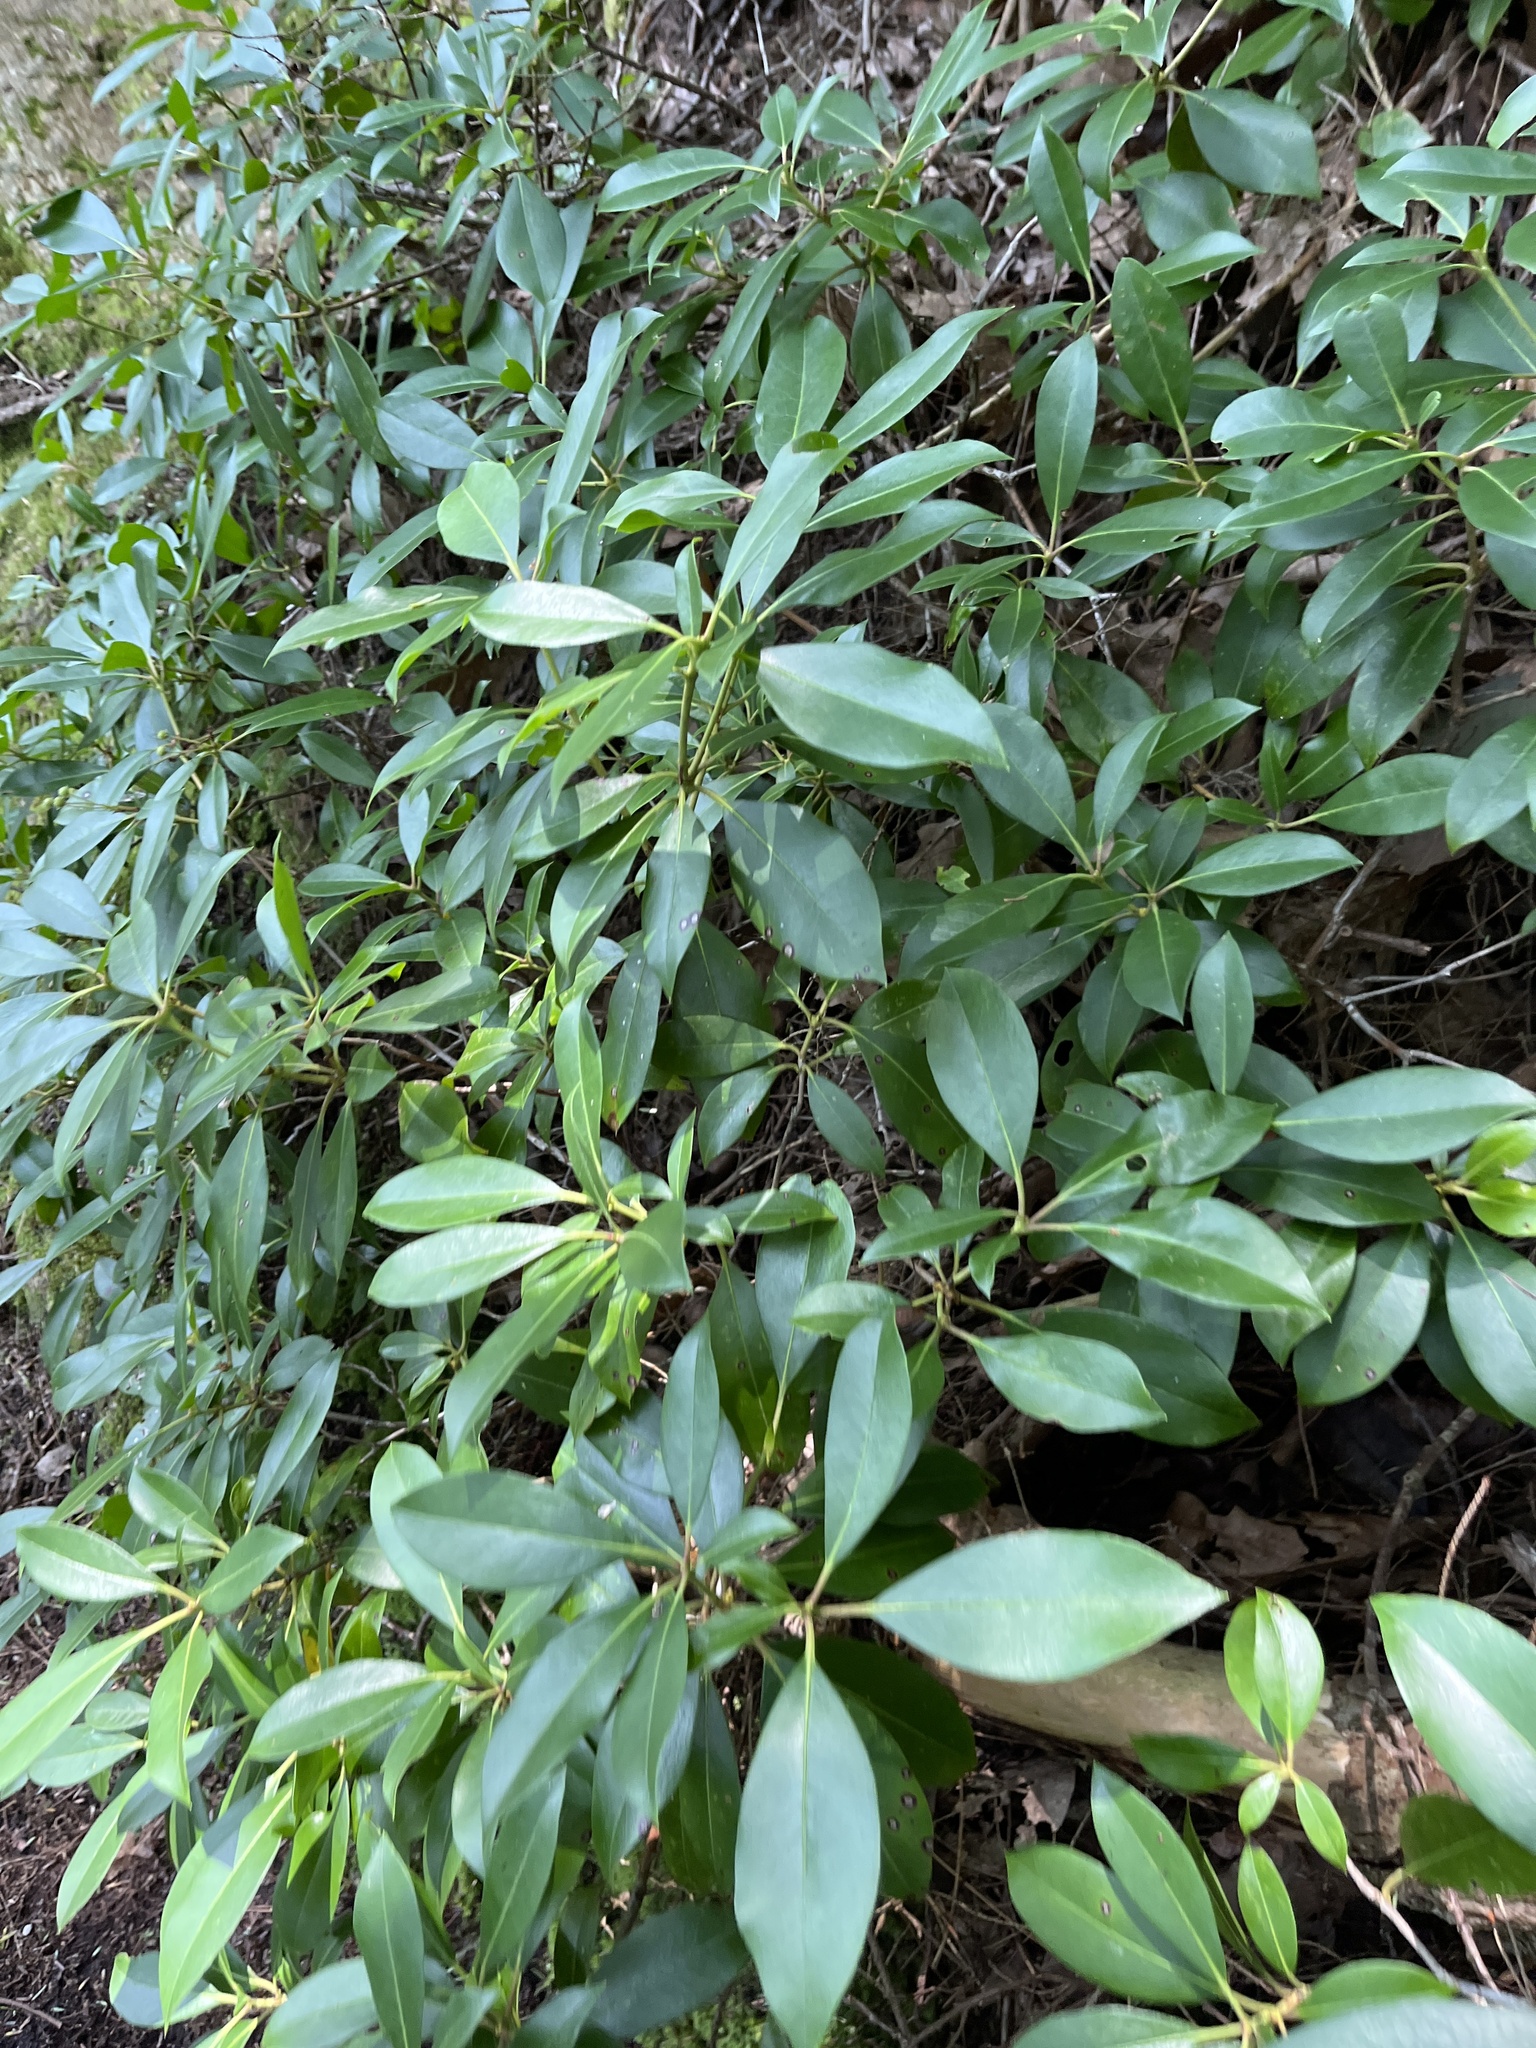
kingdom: Plantae
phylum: Tracheophyta
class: Magnoliopsida
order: Ericales
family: Ericaceae
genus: Kalmia
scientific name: Kalmia latifolia
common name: Mountain-laurel
